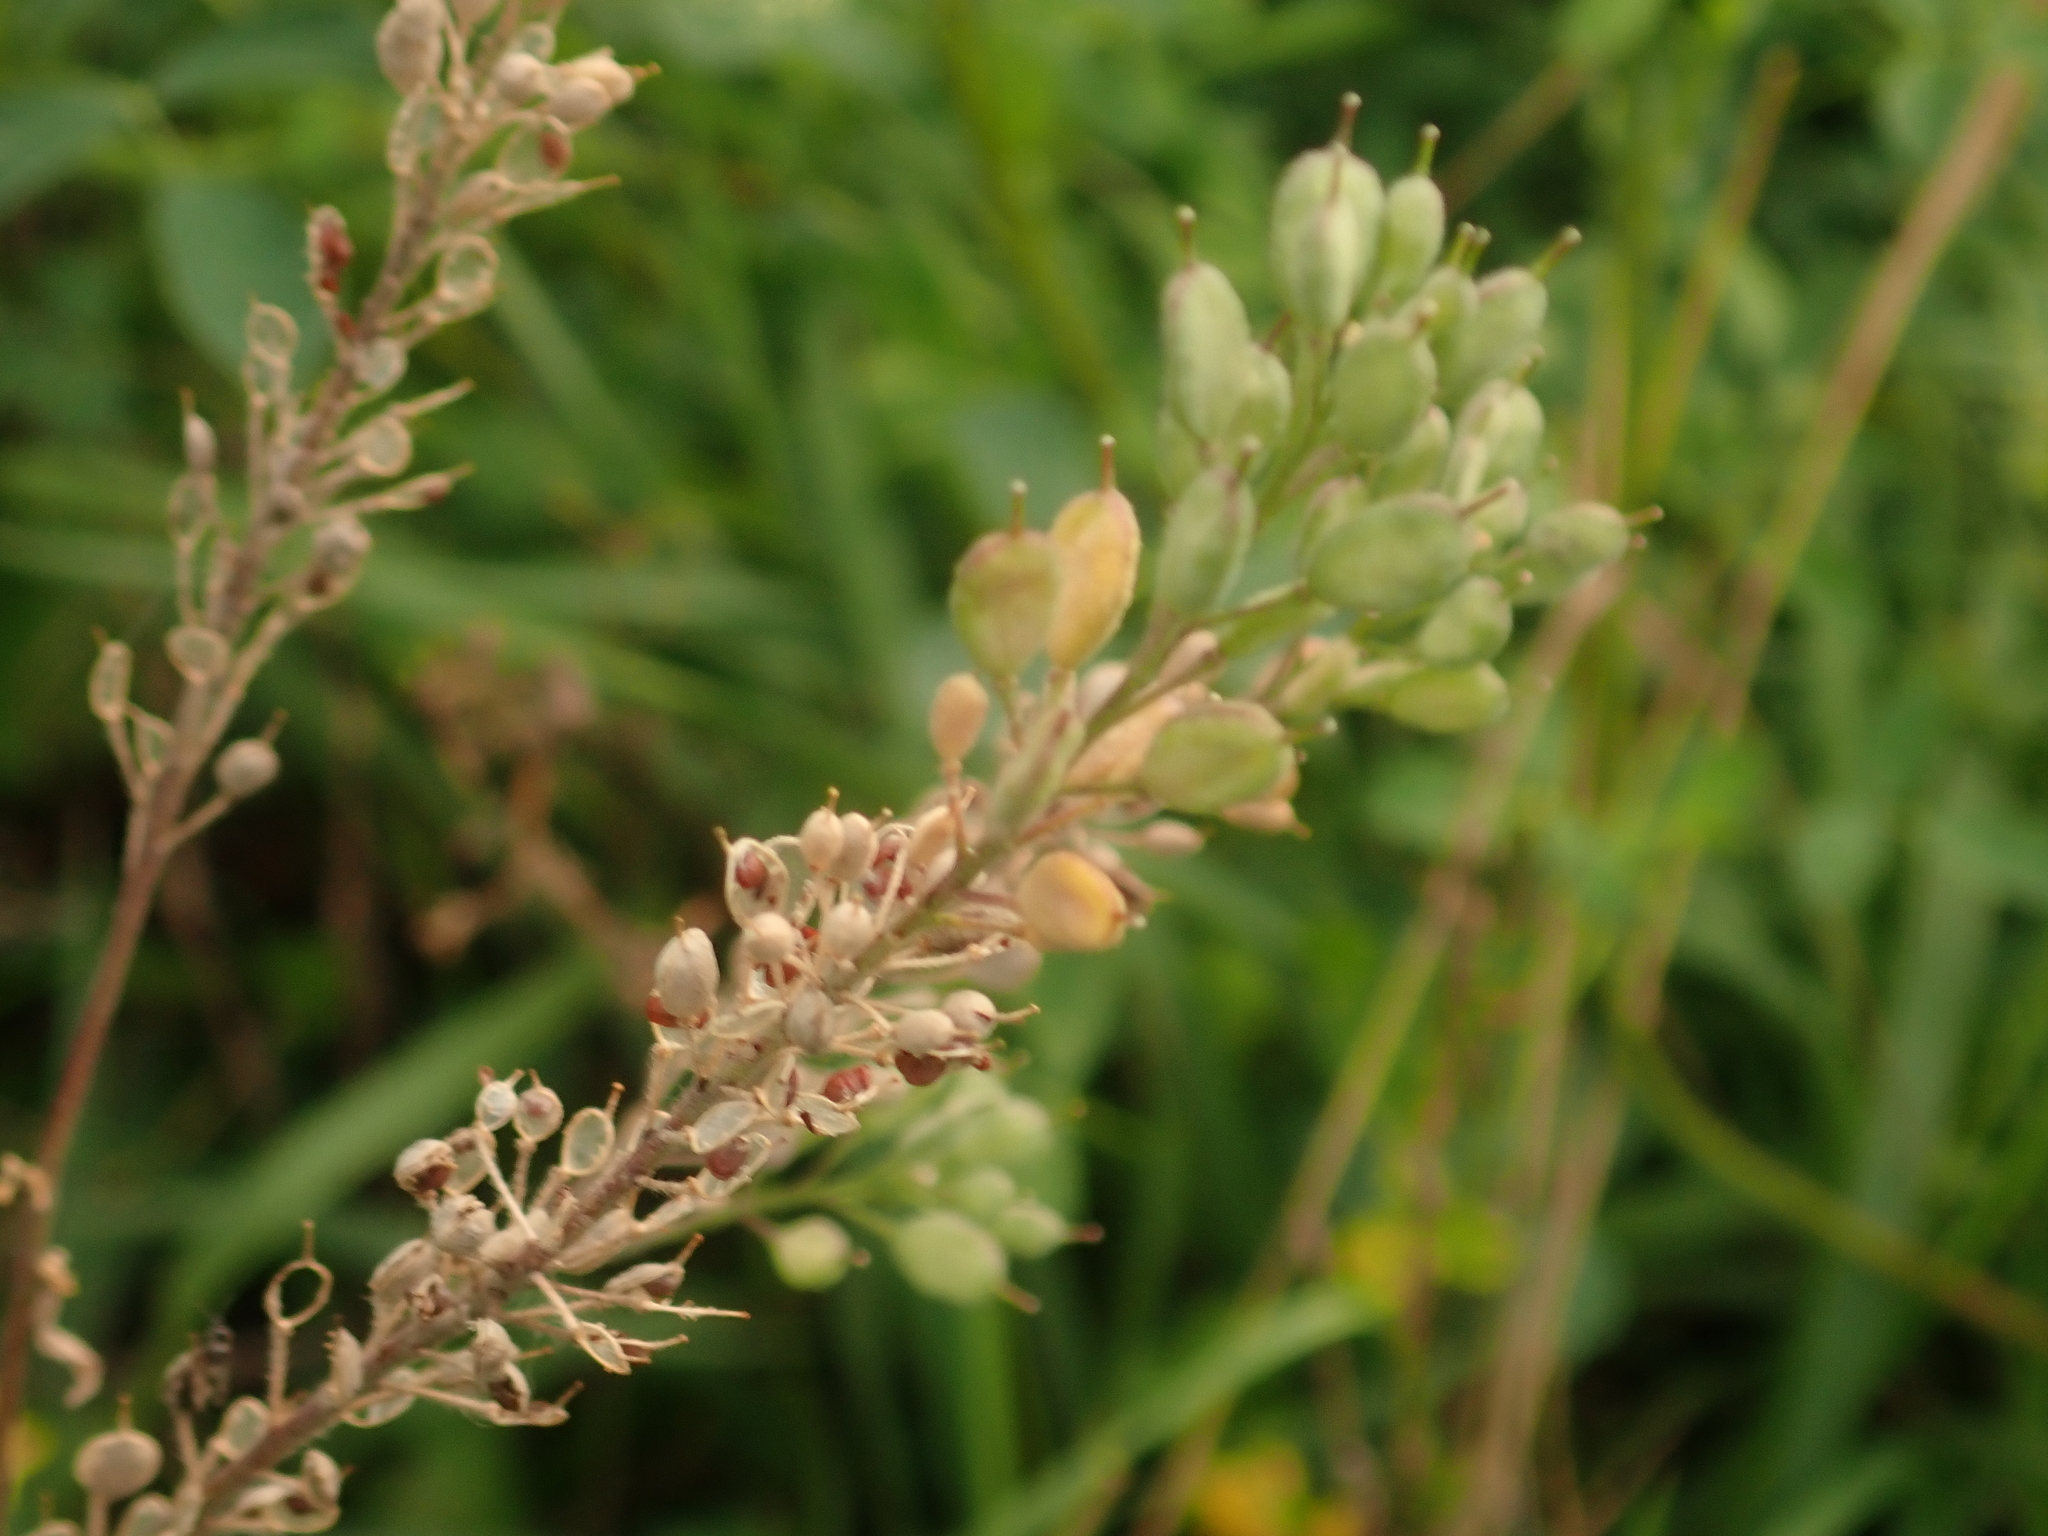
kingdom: Plantae
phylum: Tracheophyta
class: Magnoliopsida
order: Brassicales
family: Brassicaceae
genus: Berteroa
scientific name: Berteroa incana
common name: Hoary alison
